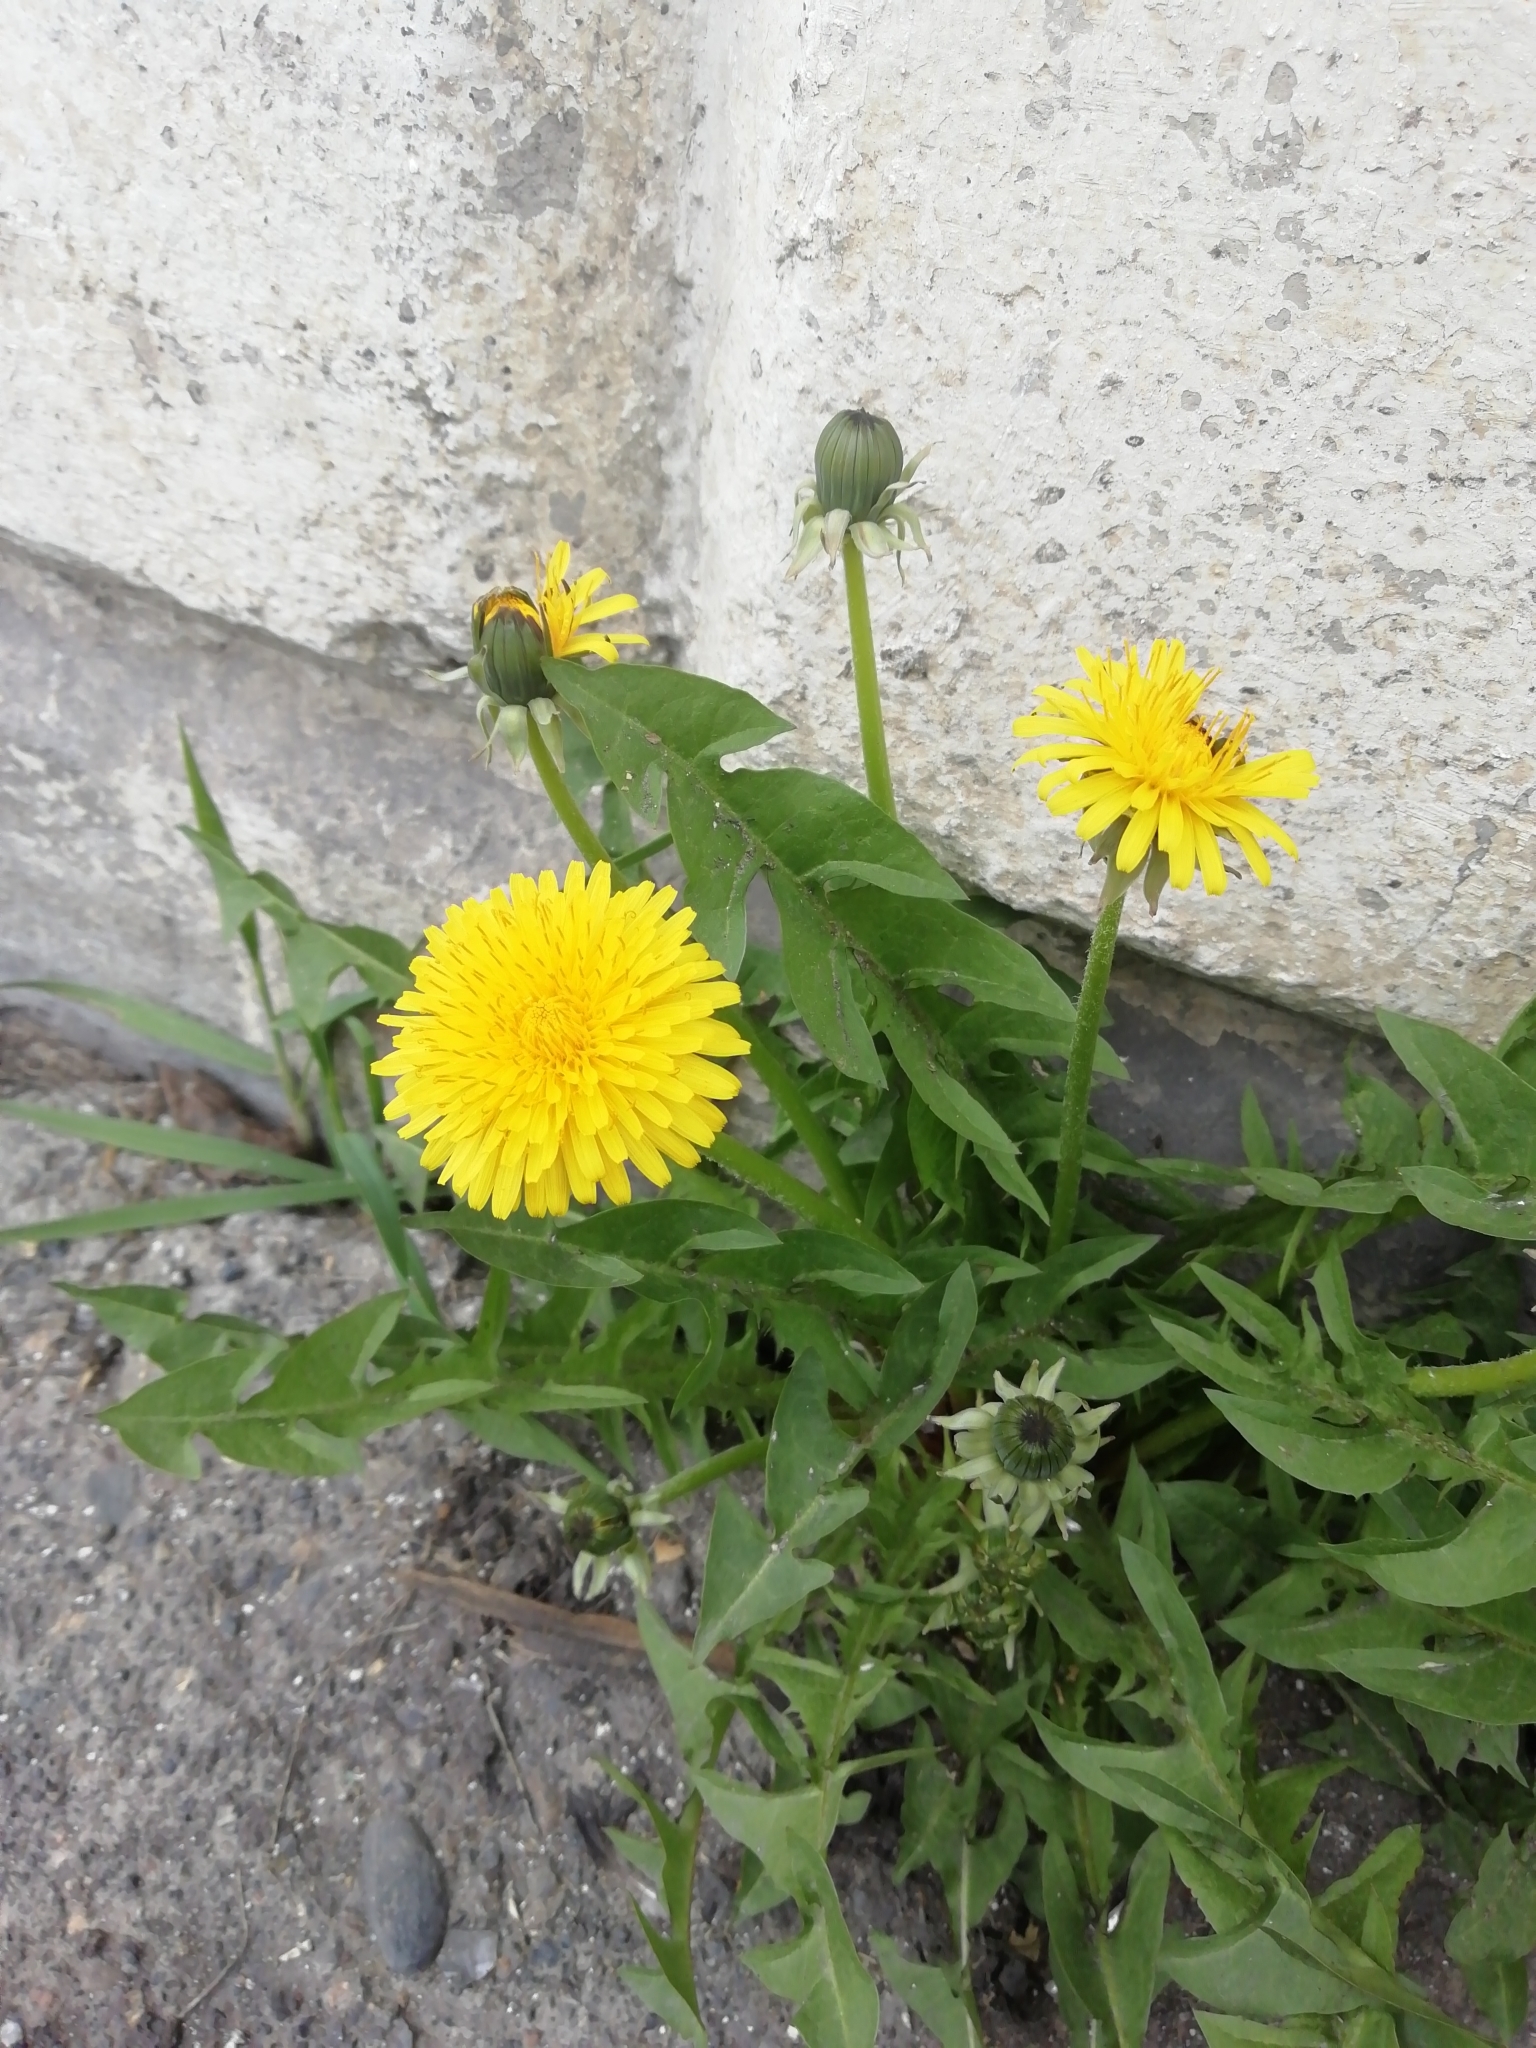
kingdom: Plantae
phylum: Tracheophyta
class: Magnoliopsida
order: Asterales
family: Asteraceae
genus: Taraxacum
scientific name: Taraxacum officinale
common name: Common dandelion
